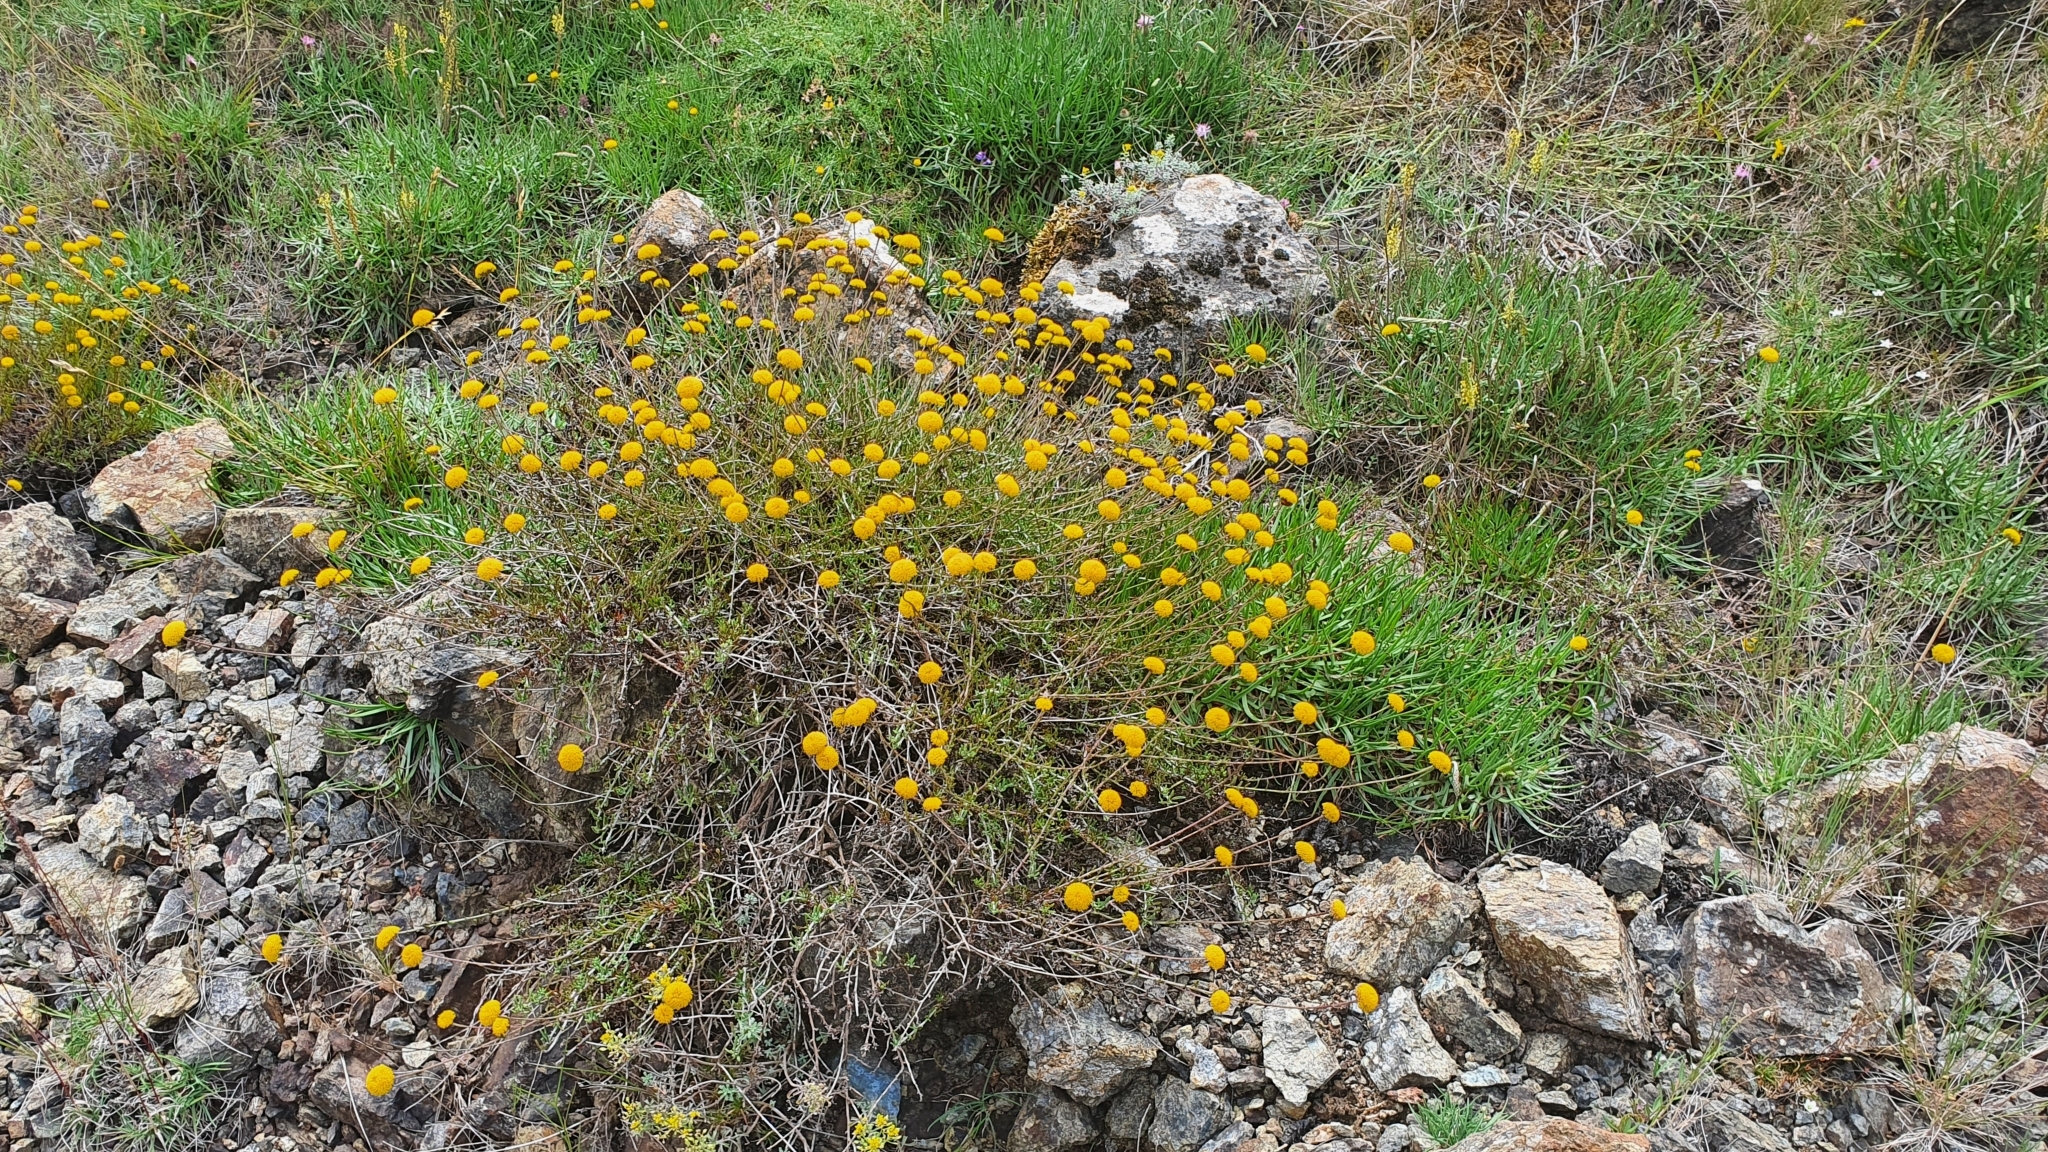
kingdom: Plantae
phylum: Tracheophyta
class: Magnoliopsida
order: Asterales
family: Asteraceae
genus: Santolina
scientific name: Santolina melidensis
